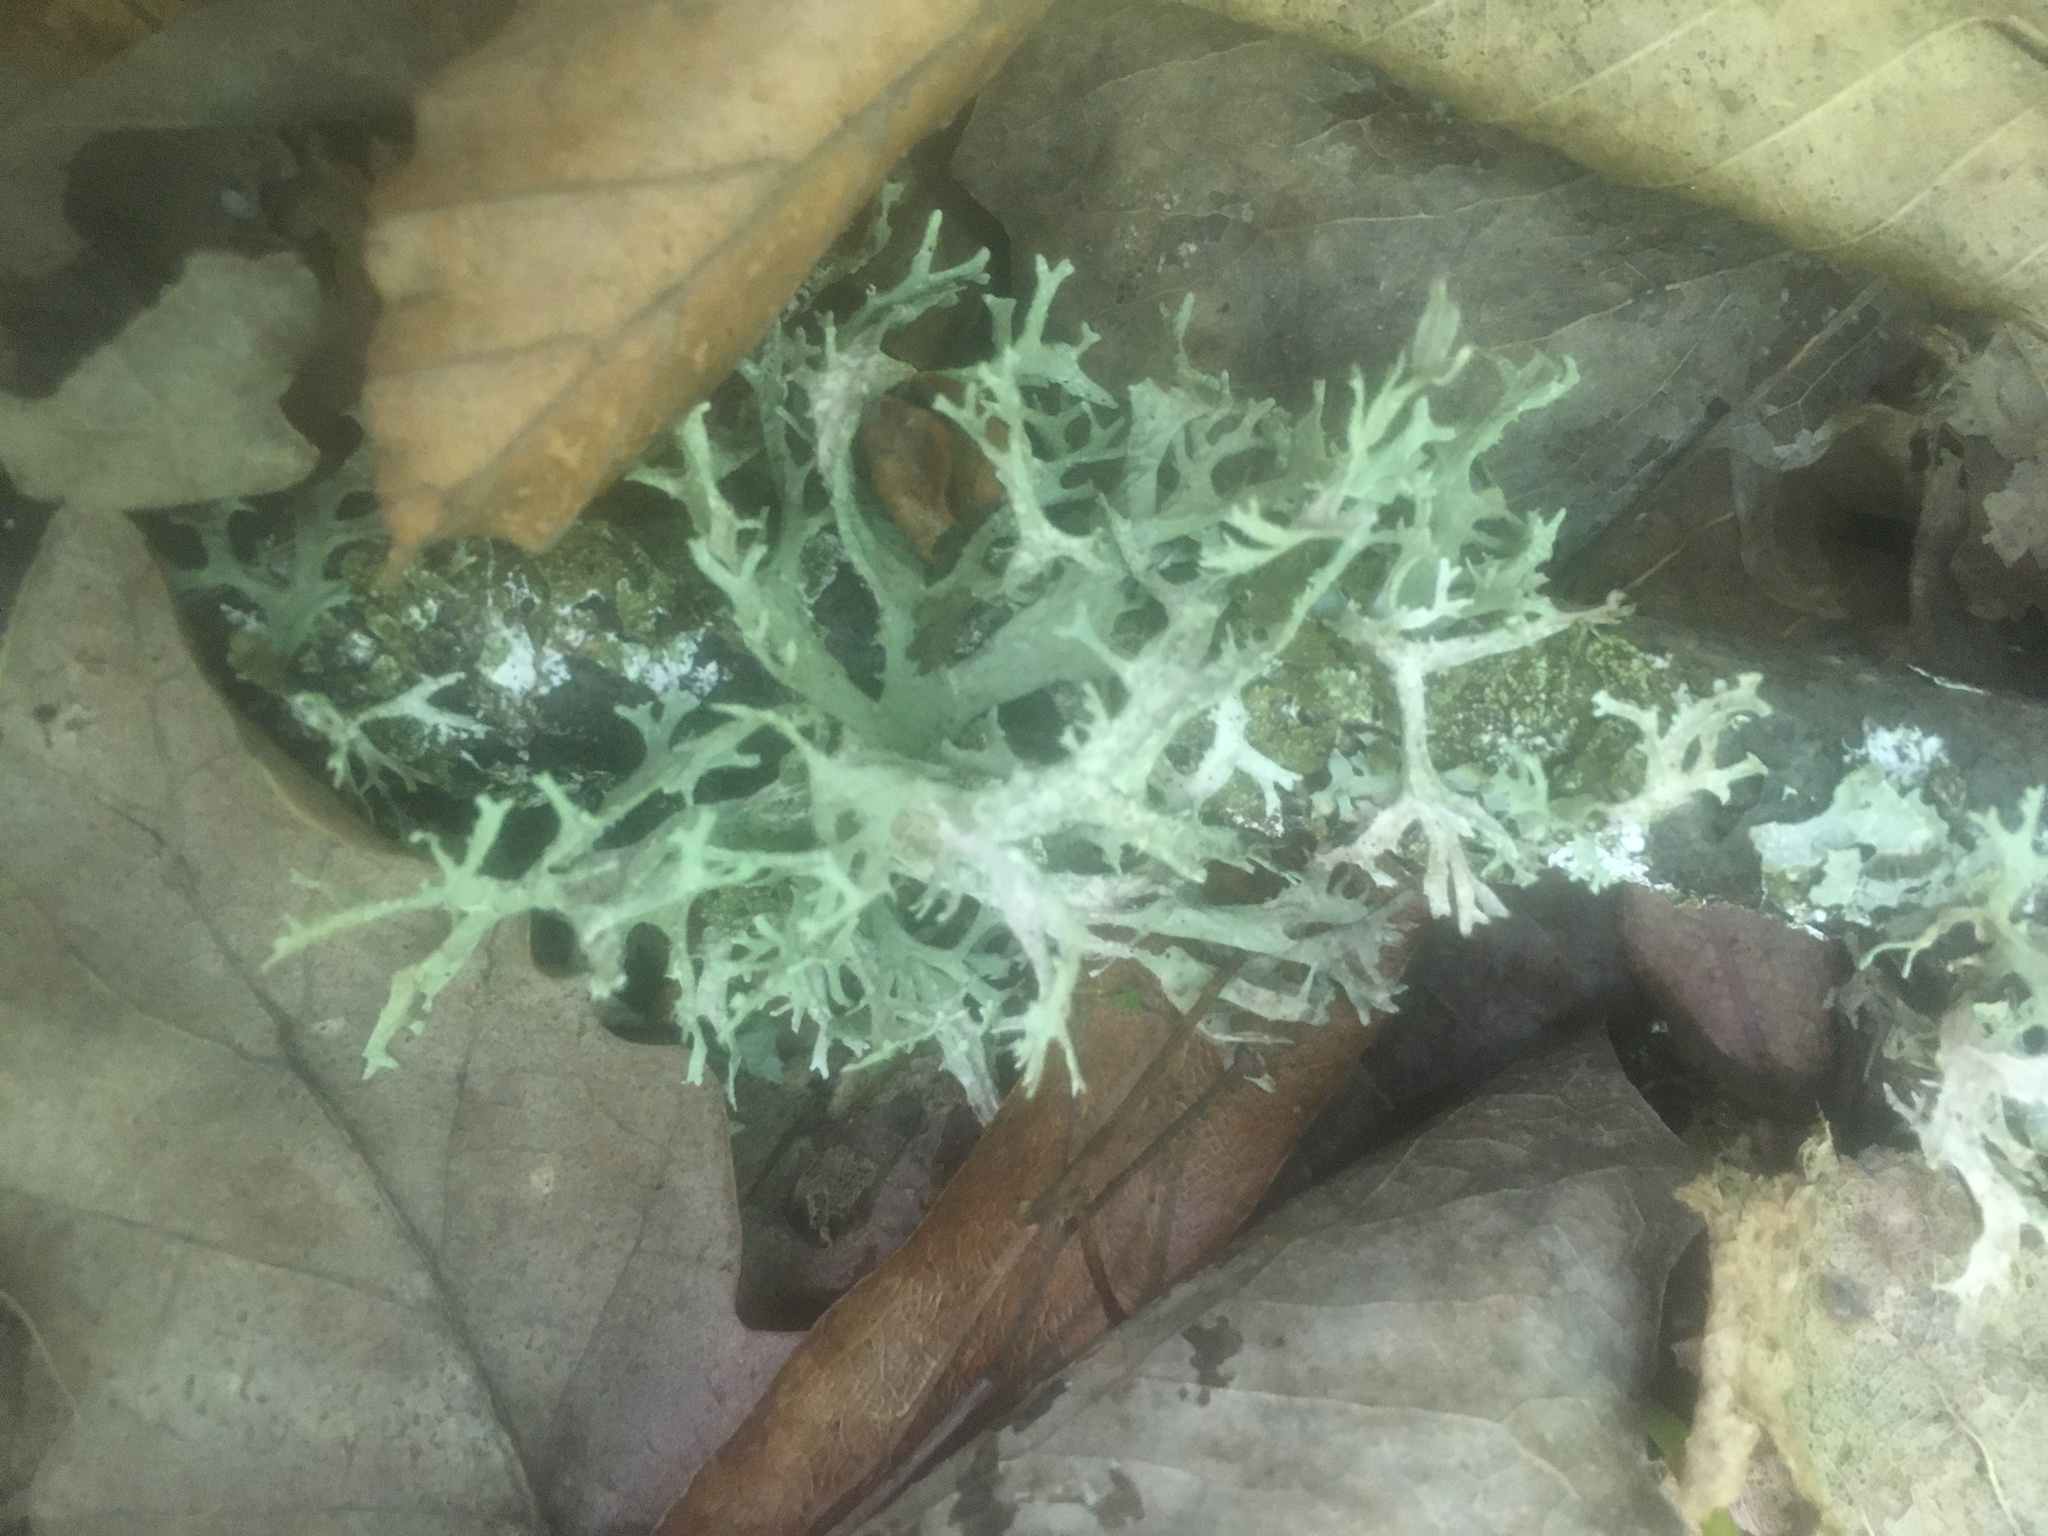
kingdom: Fungi
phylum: Ascomycota
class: Lecanoromycetes
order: Lecanorales
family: Parmeliaceae
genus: Evernia
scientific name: Evernia prunastri
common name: Oak moss
